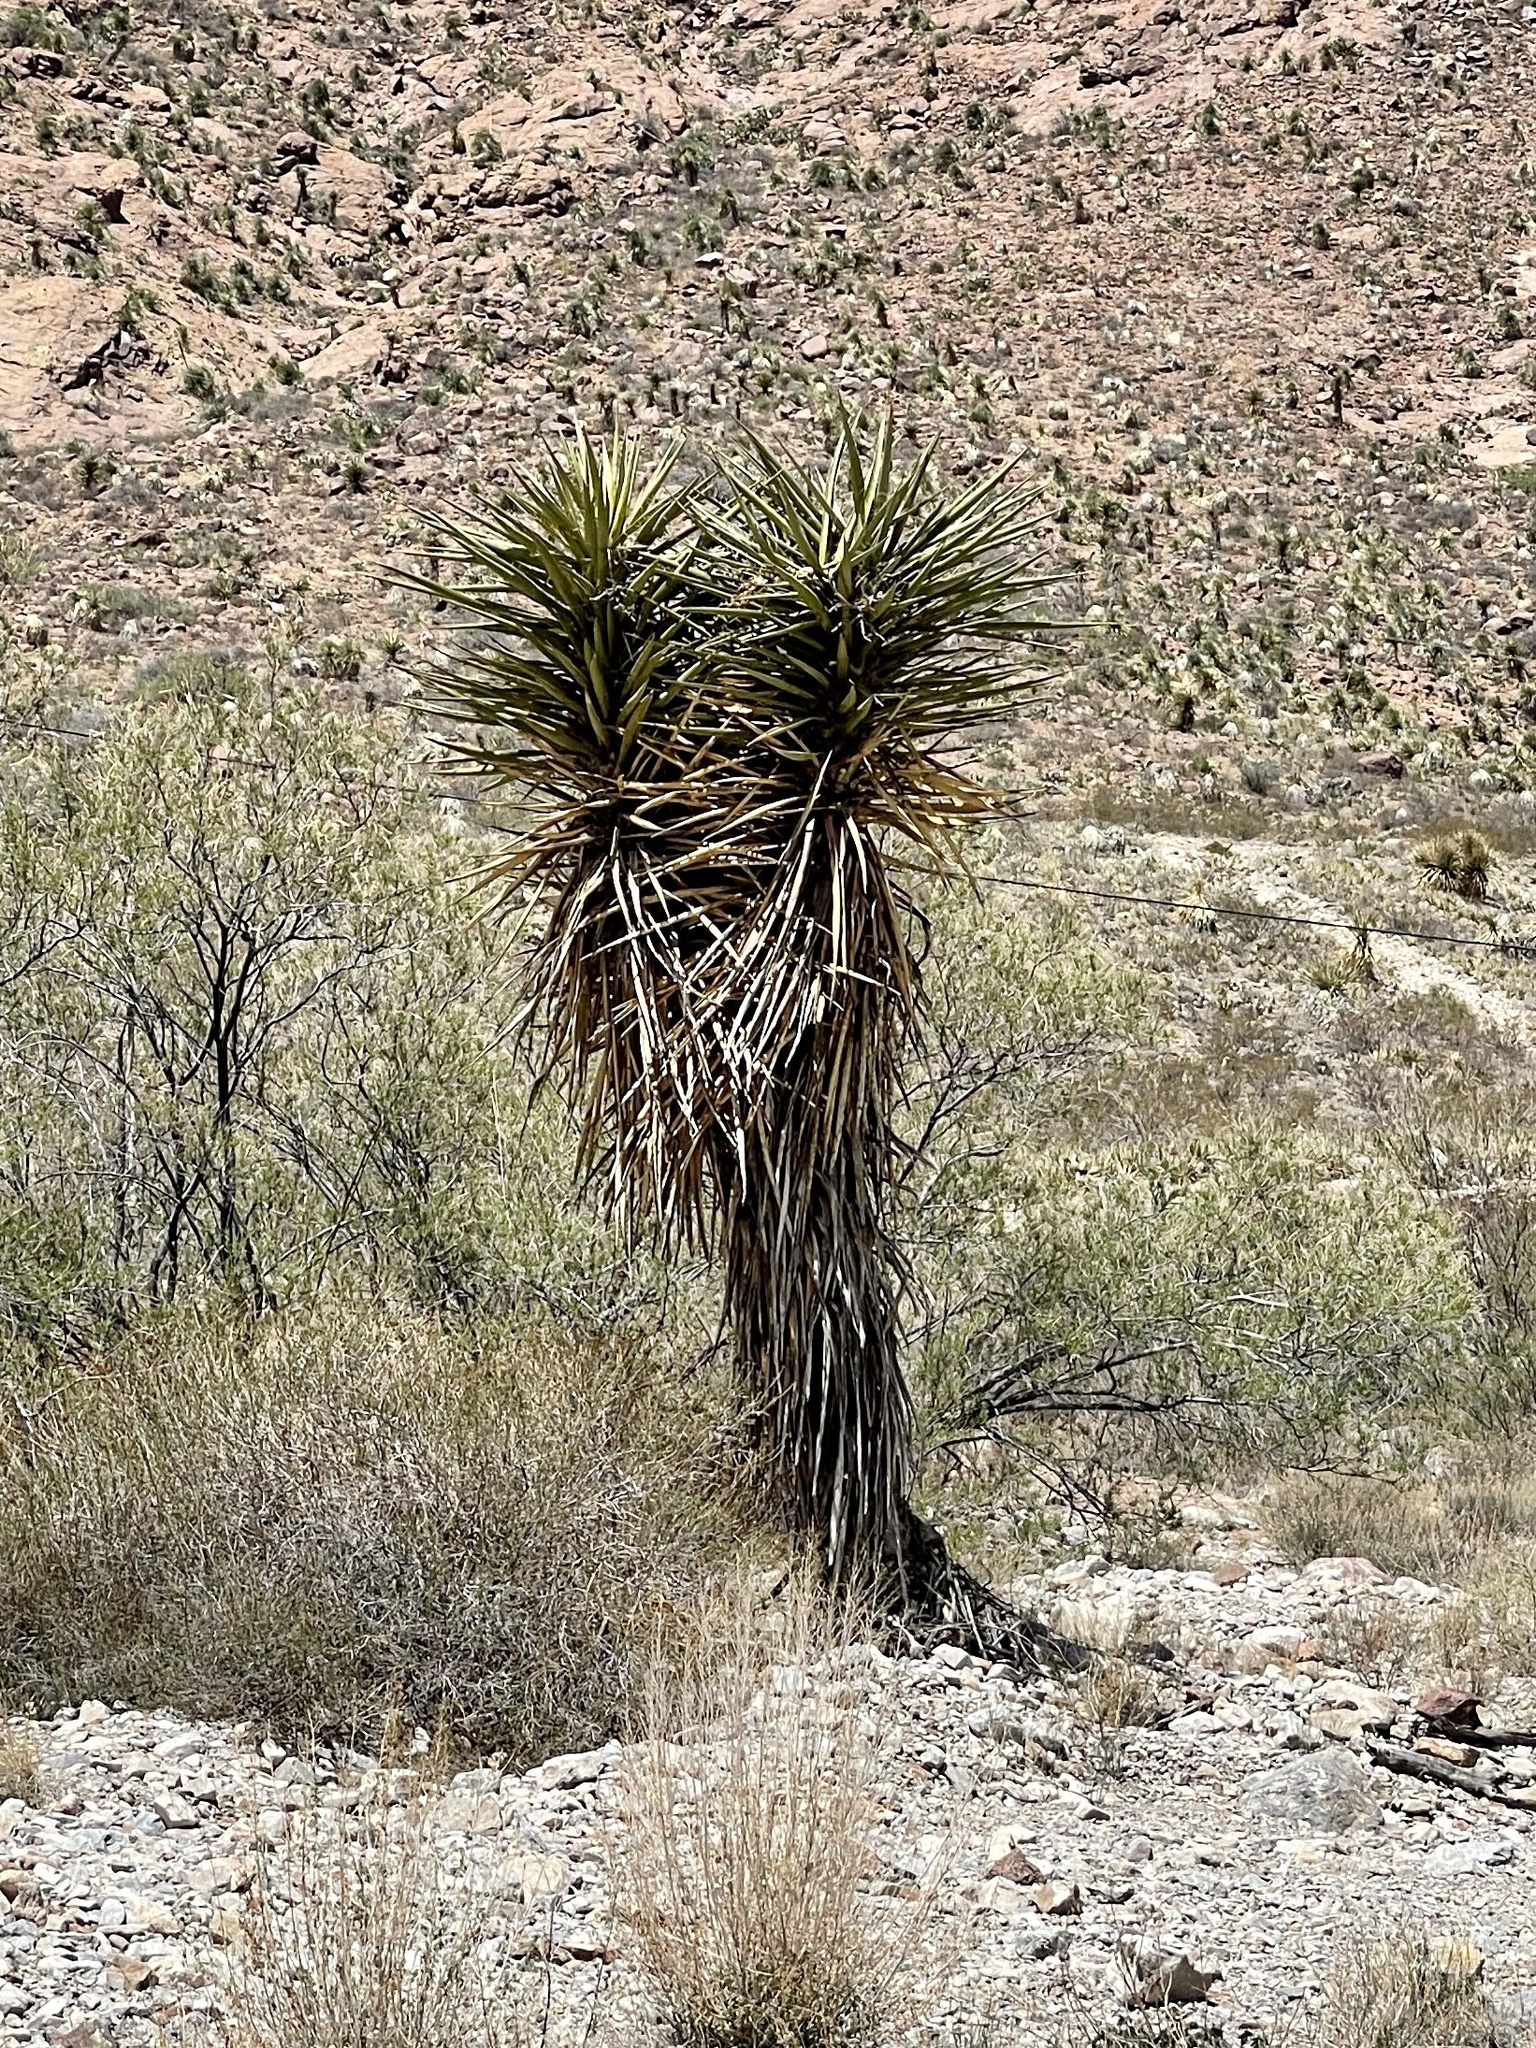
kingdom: Plantae
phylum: Tracheophyta
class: Liliopsida
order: Asparagales
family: Asparagaceae
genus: Yucca
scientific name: Yucca treculiana
